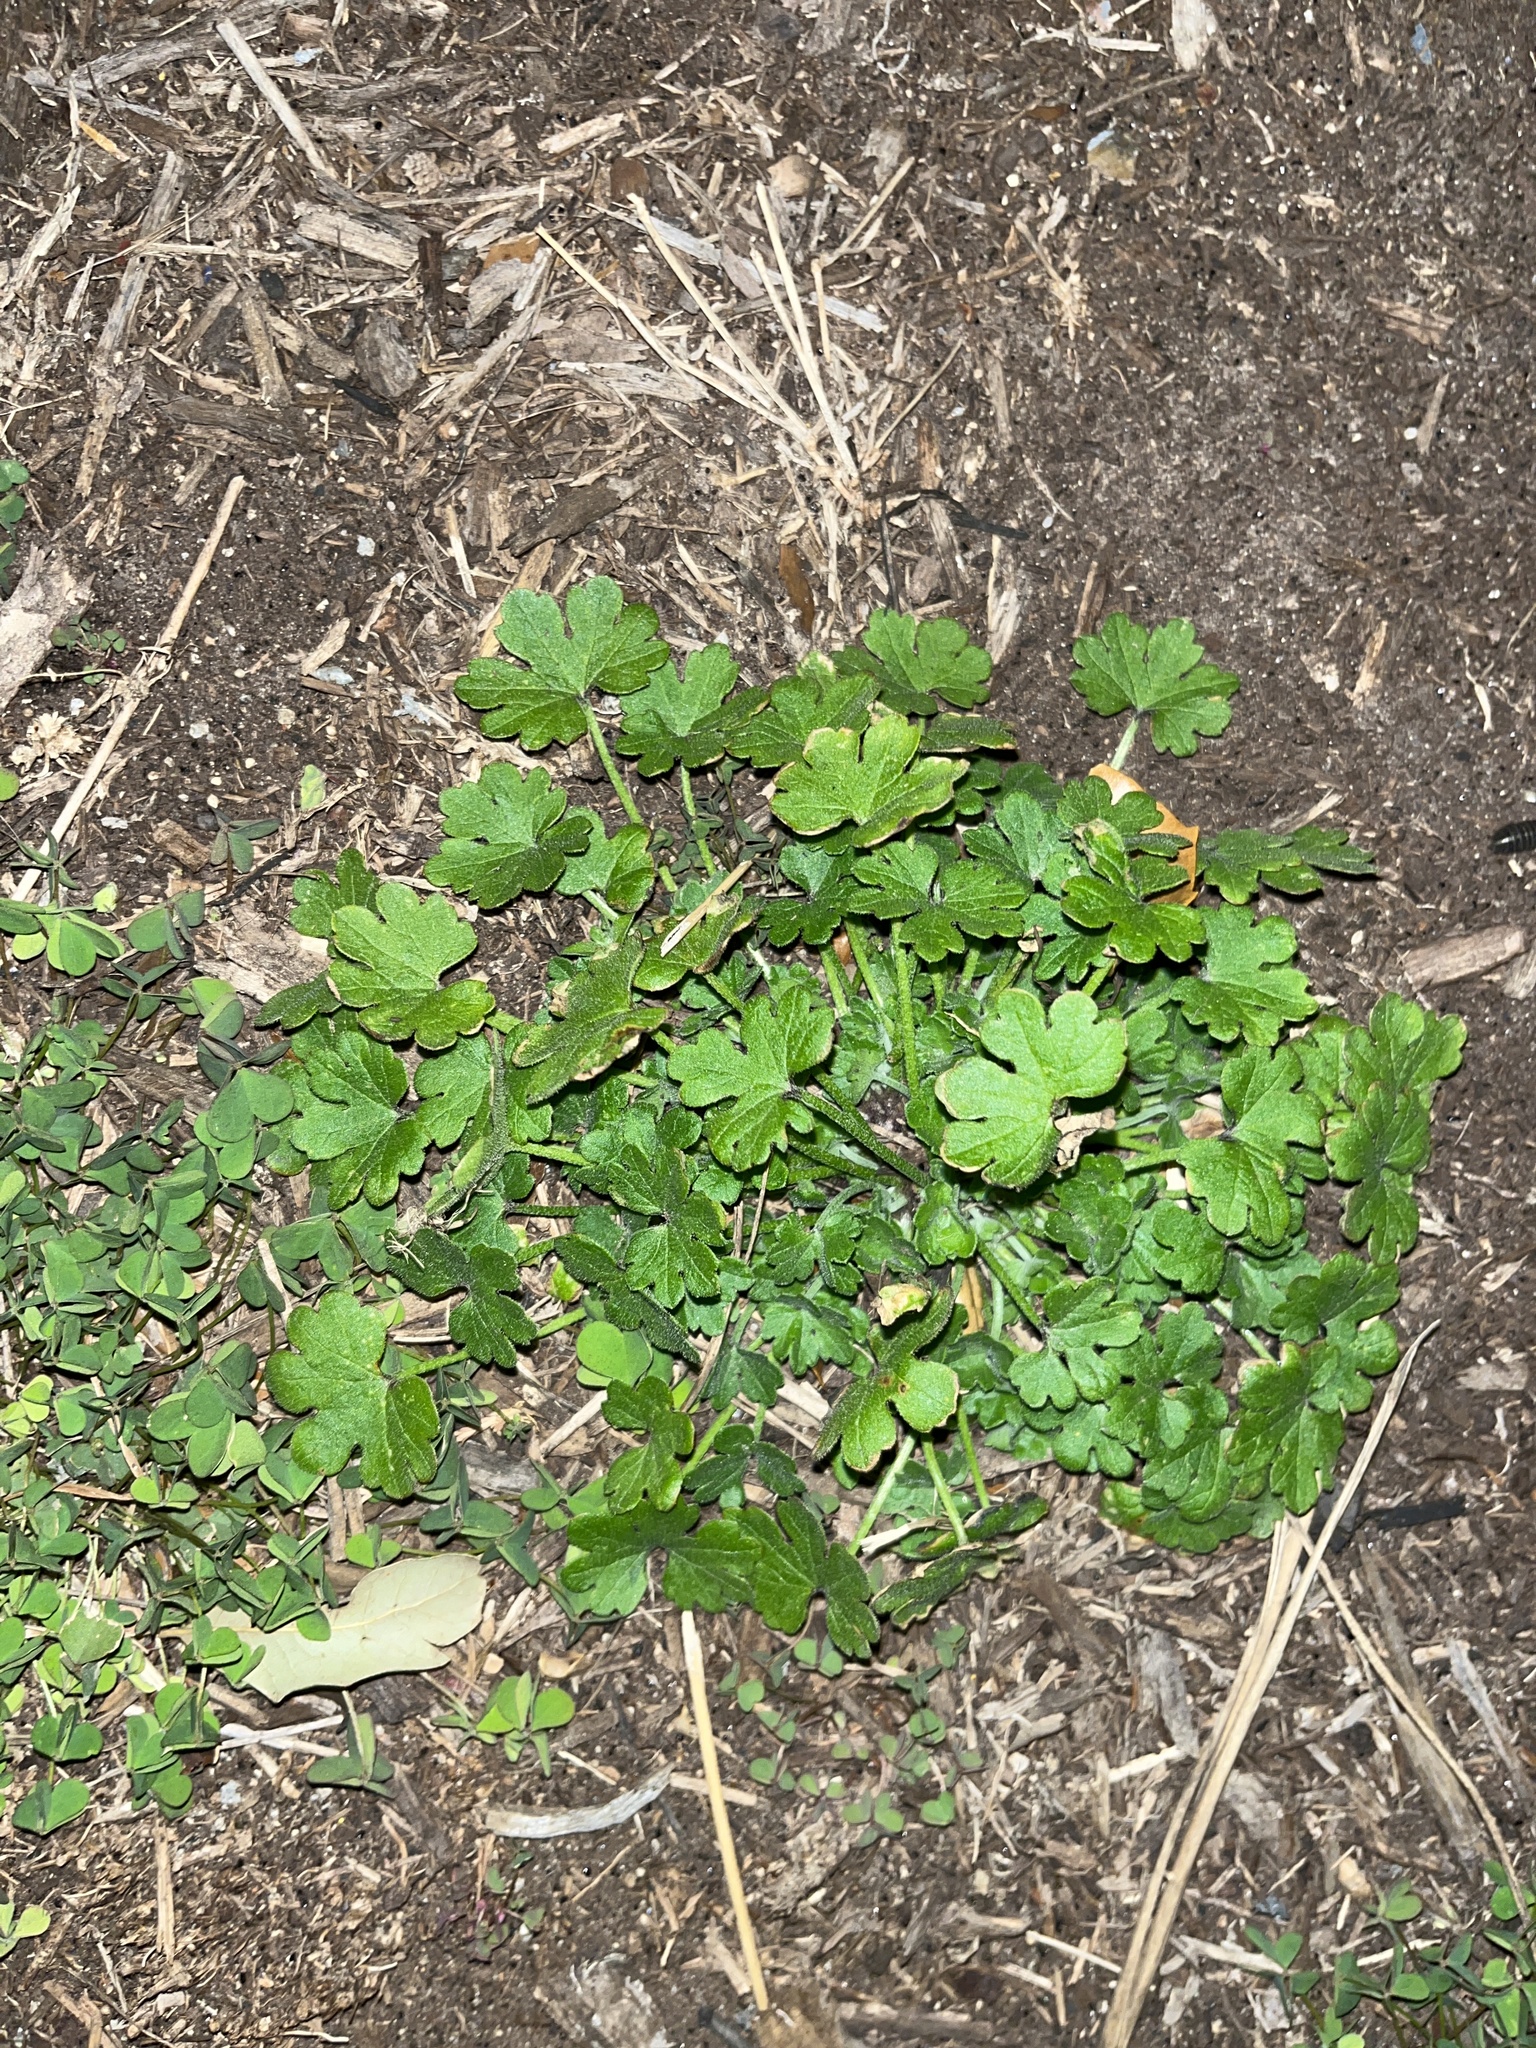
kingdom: Plantae
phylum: Tracheophyta
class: Magnoliopsida
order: Apiales
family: Apiaceae
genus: Bowlesia
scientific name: Bowlesia incana
